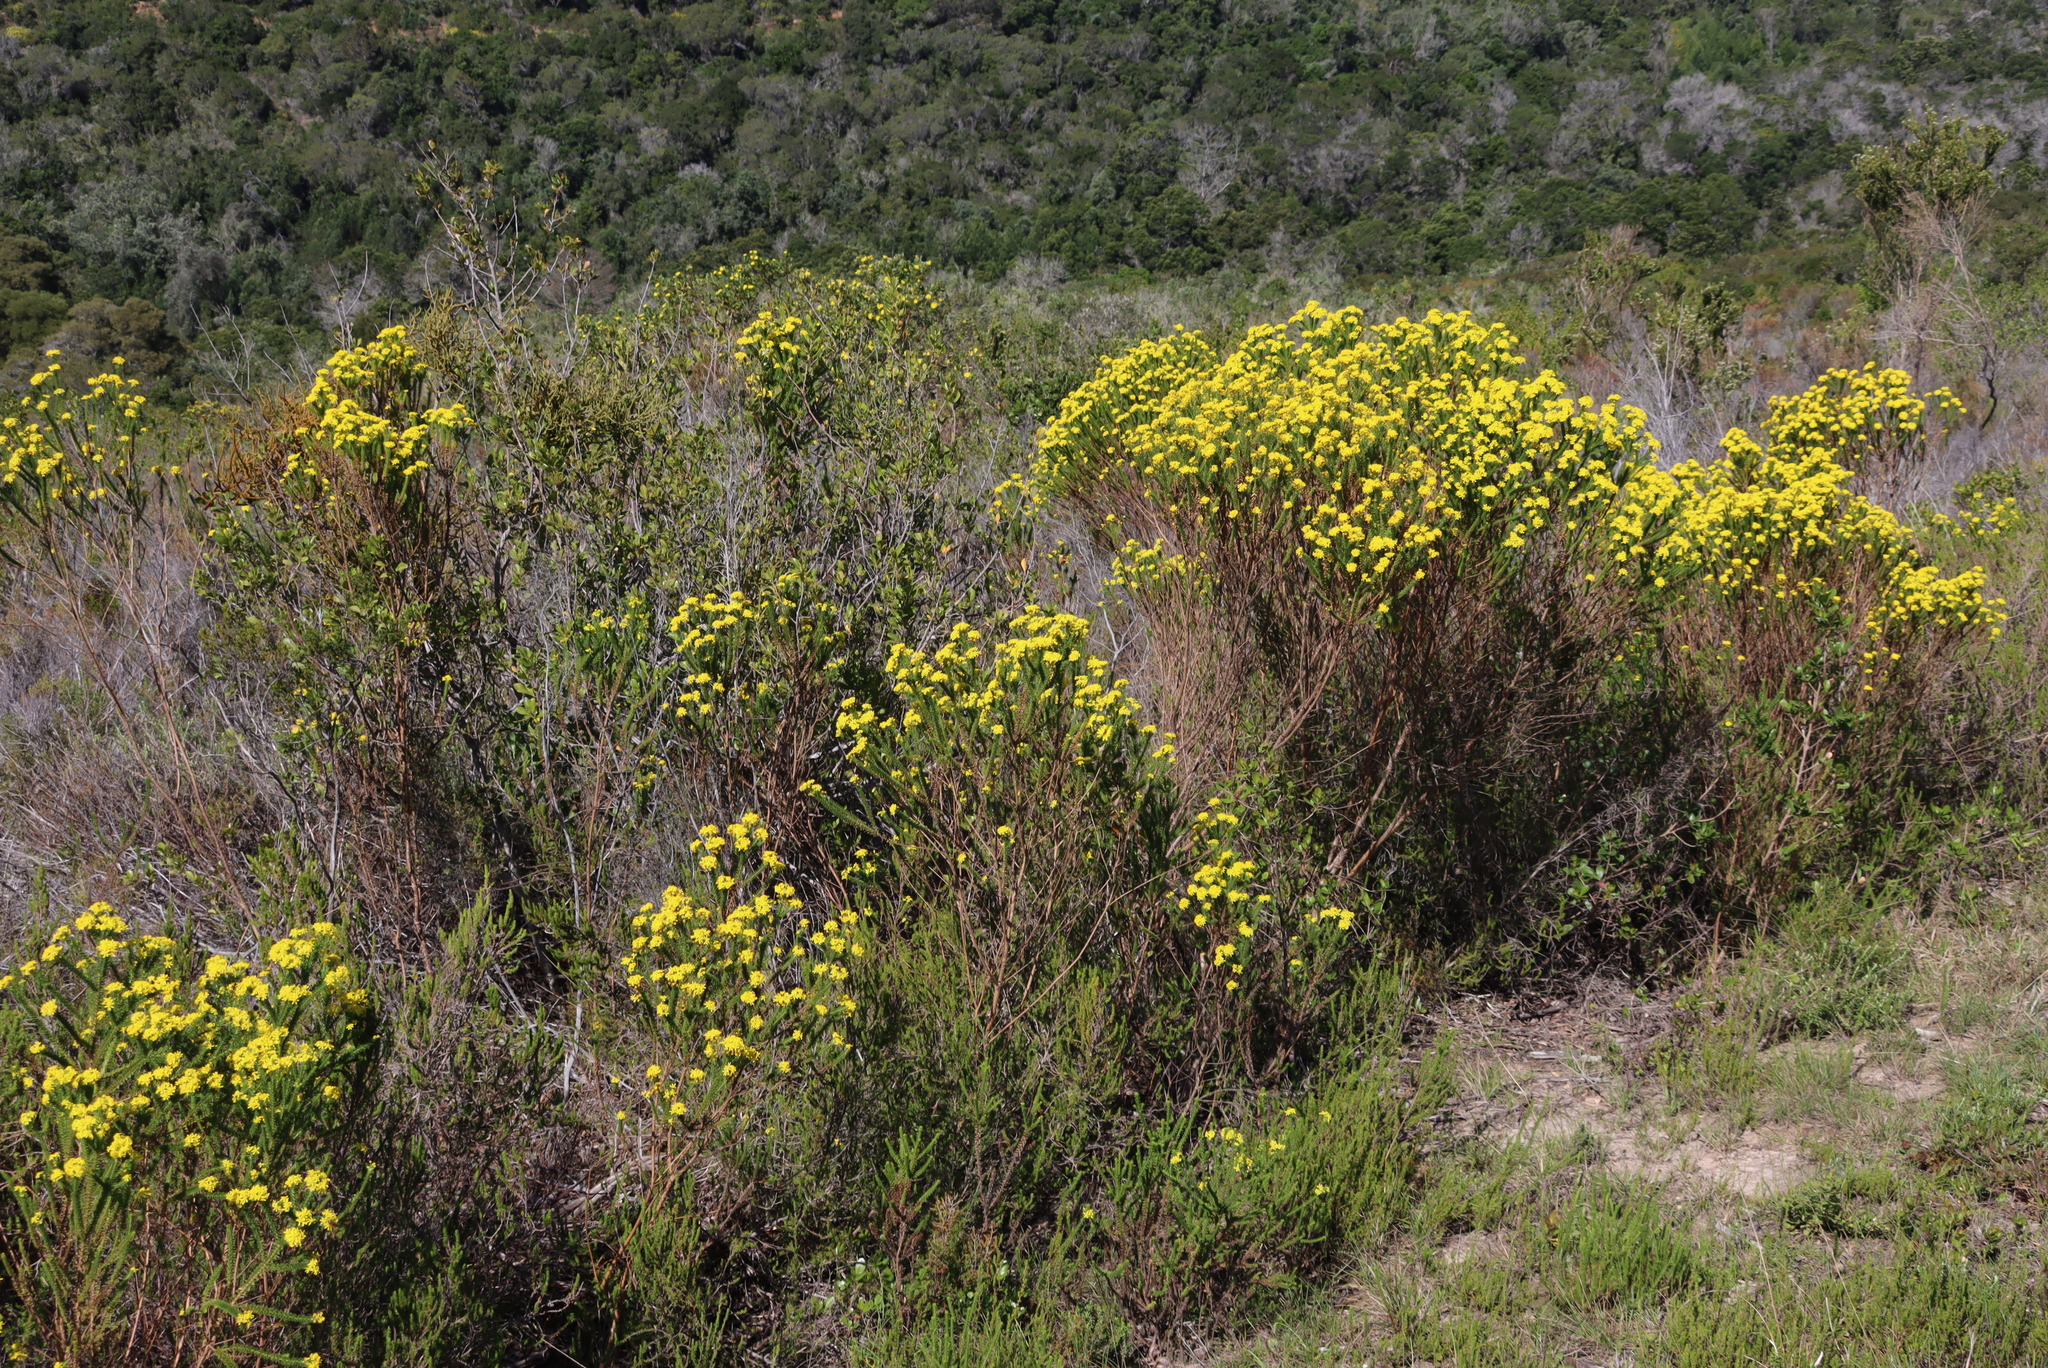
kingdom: Plantae
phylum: Tracheophyta
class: Magnoliopsida
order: Asterales
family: Asteraceae
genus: Euryops
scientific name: Euryops virgineus
